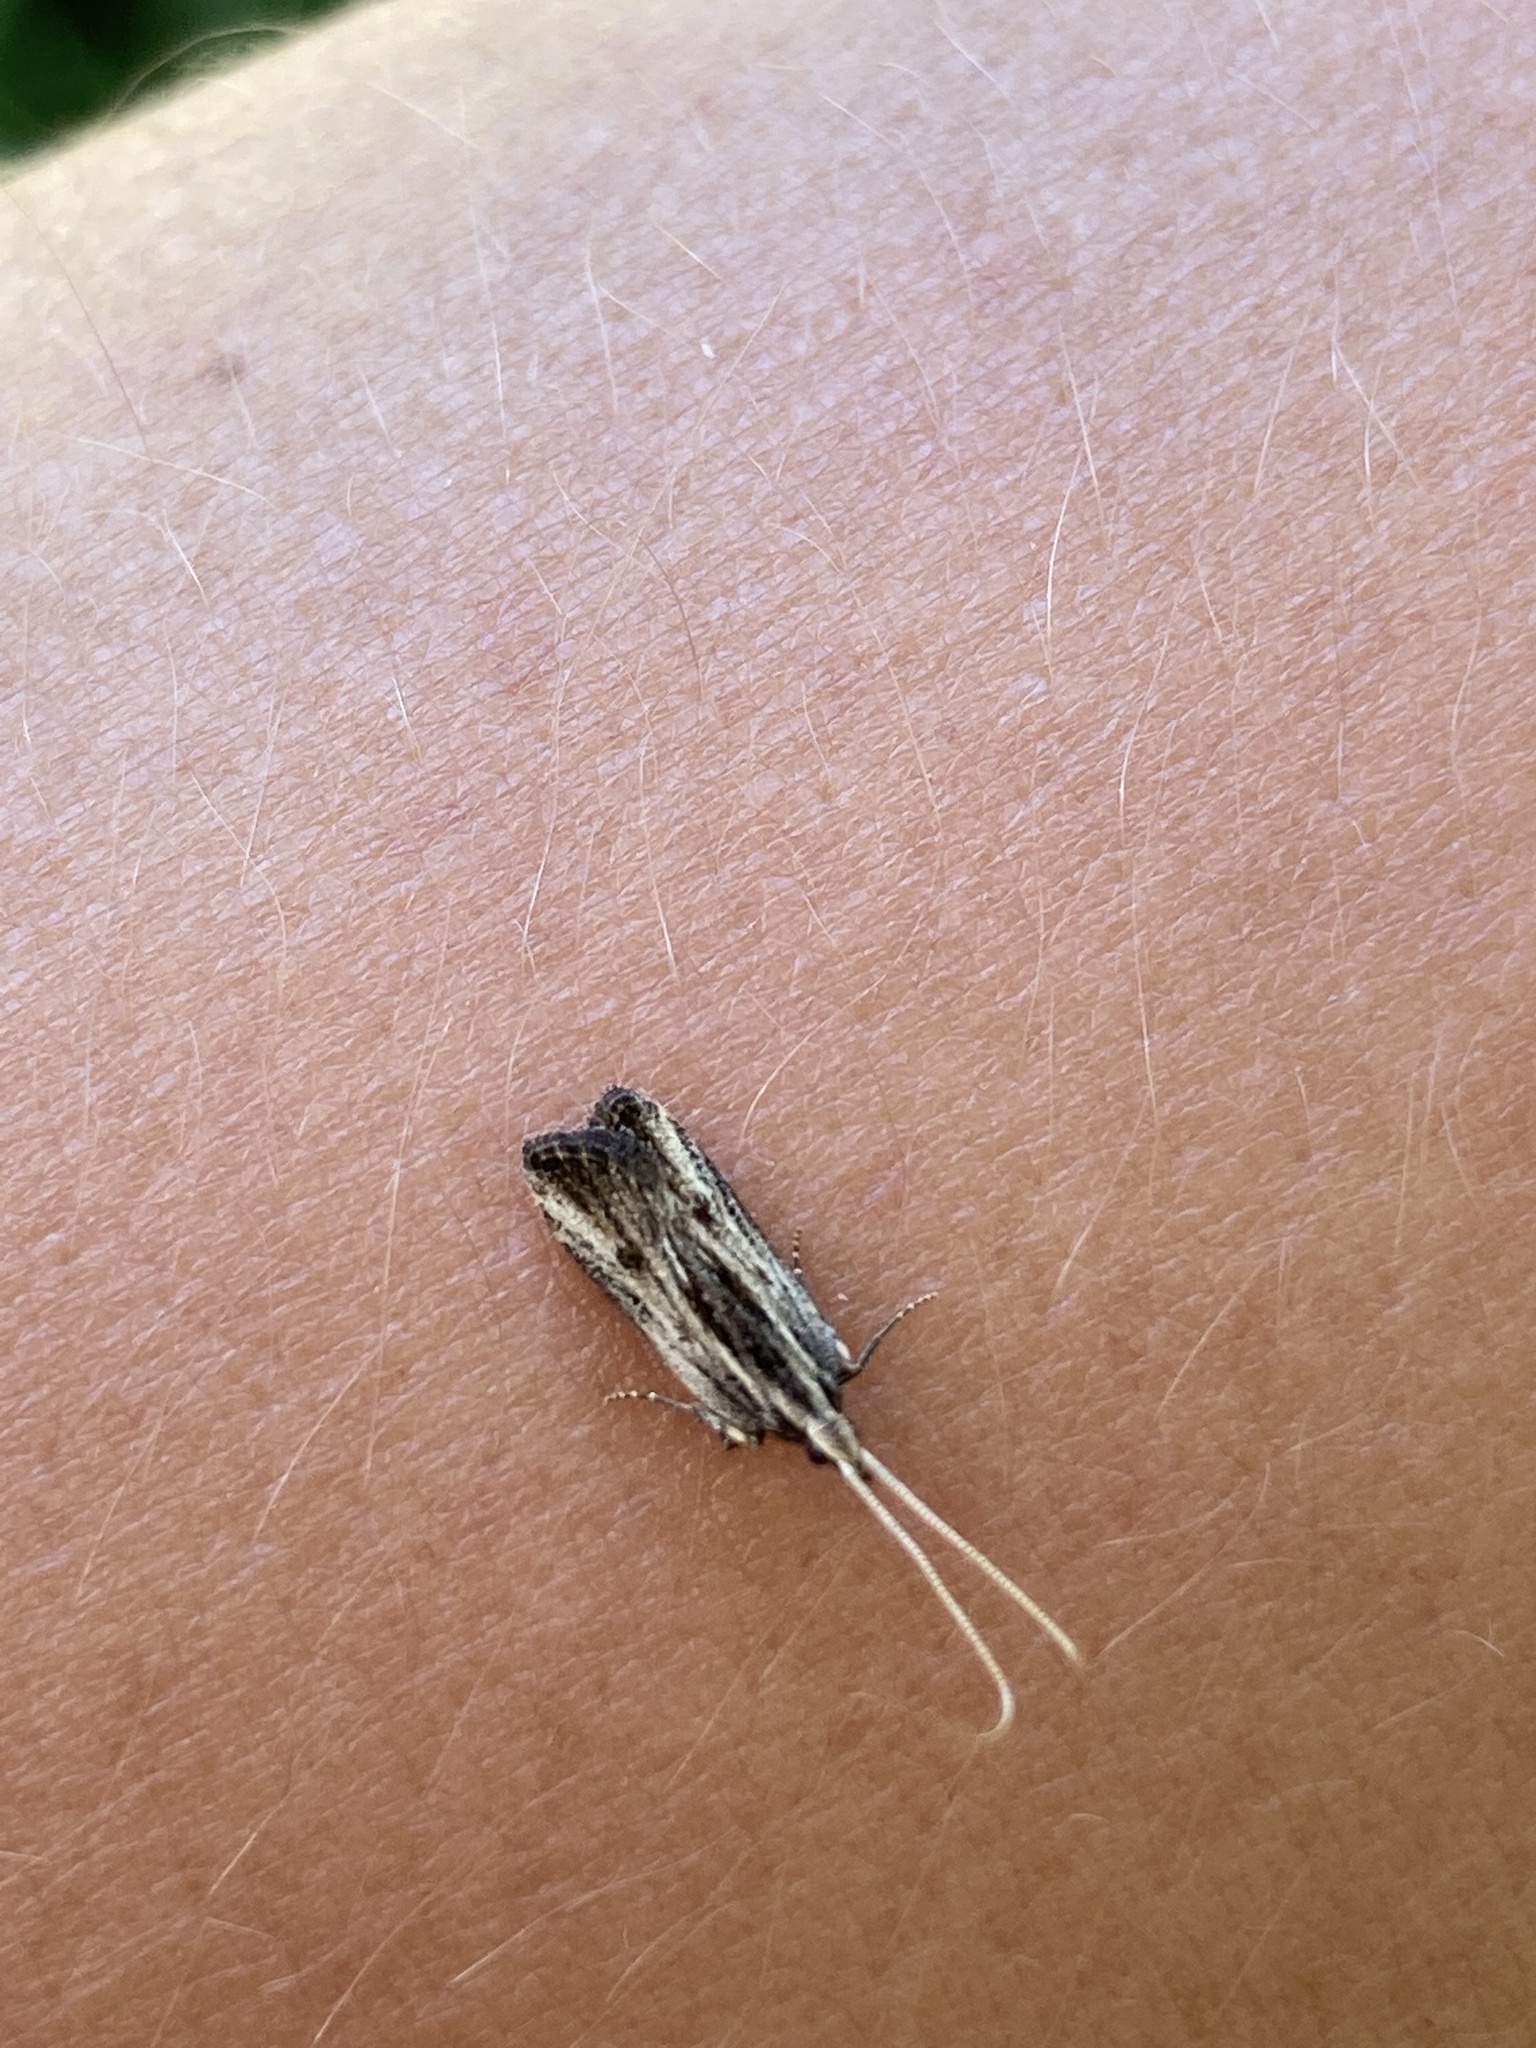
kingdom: Animalia
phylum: Arthropoda
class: Insecta
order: Lepidoptera
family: Lecithoceridae
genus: Sarisophora
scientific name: Sarisophora leucoscia
